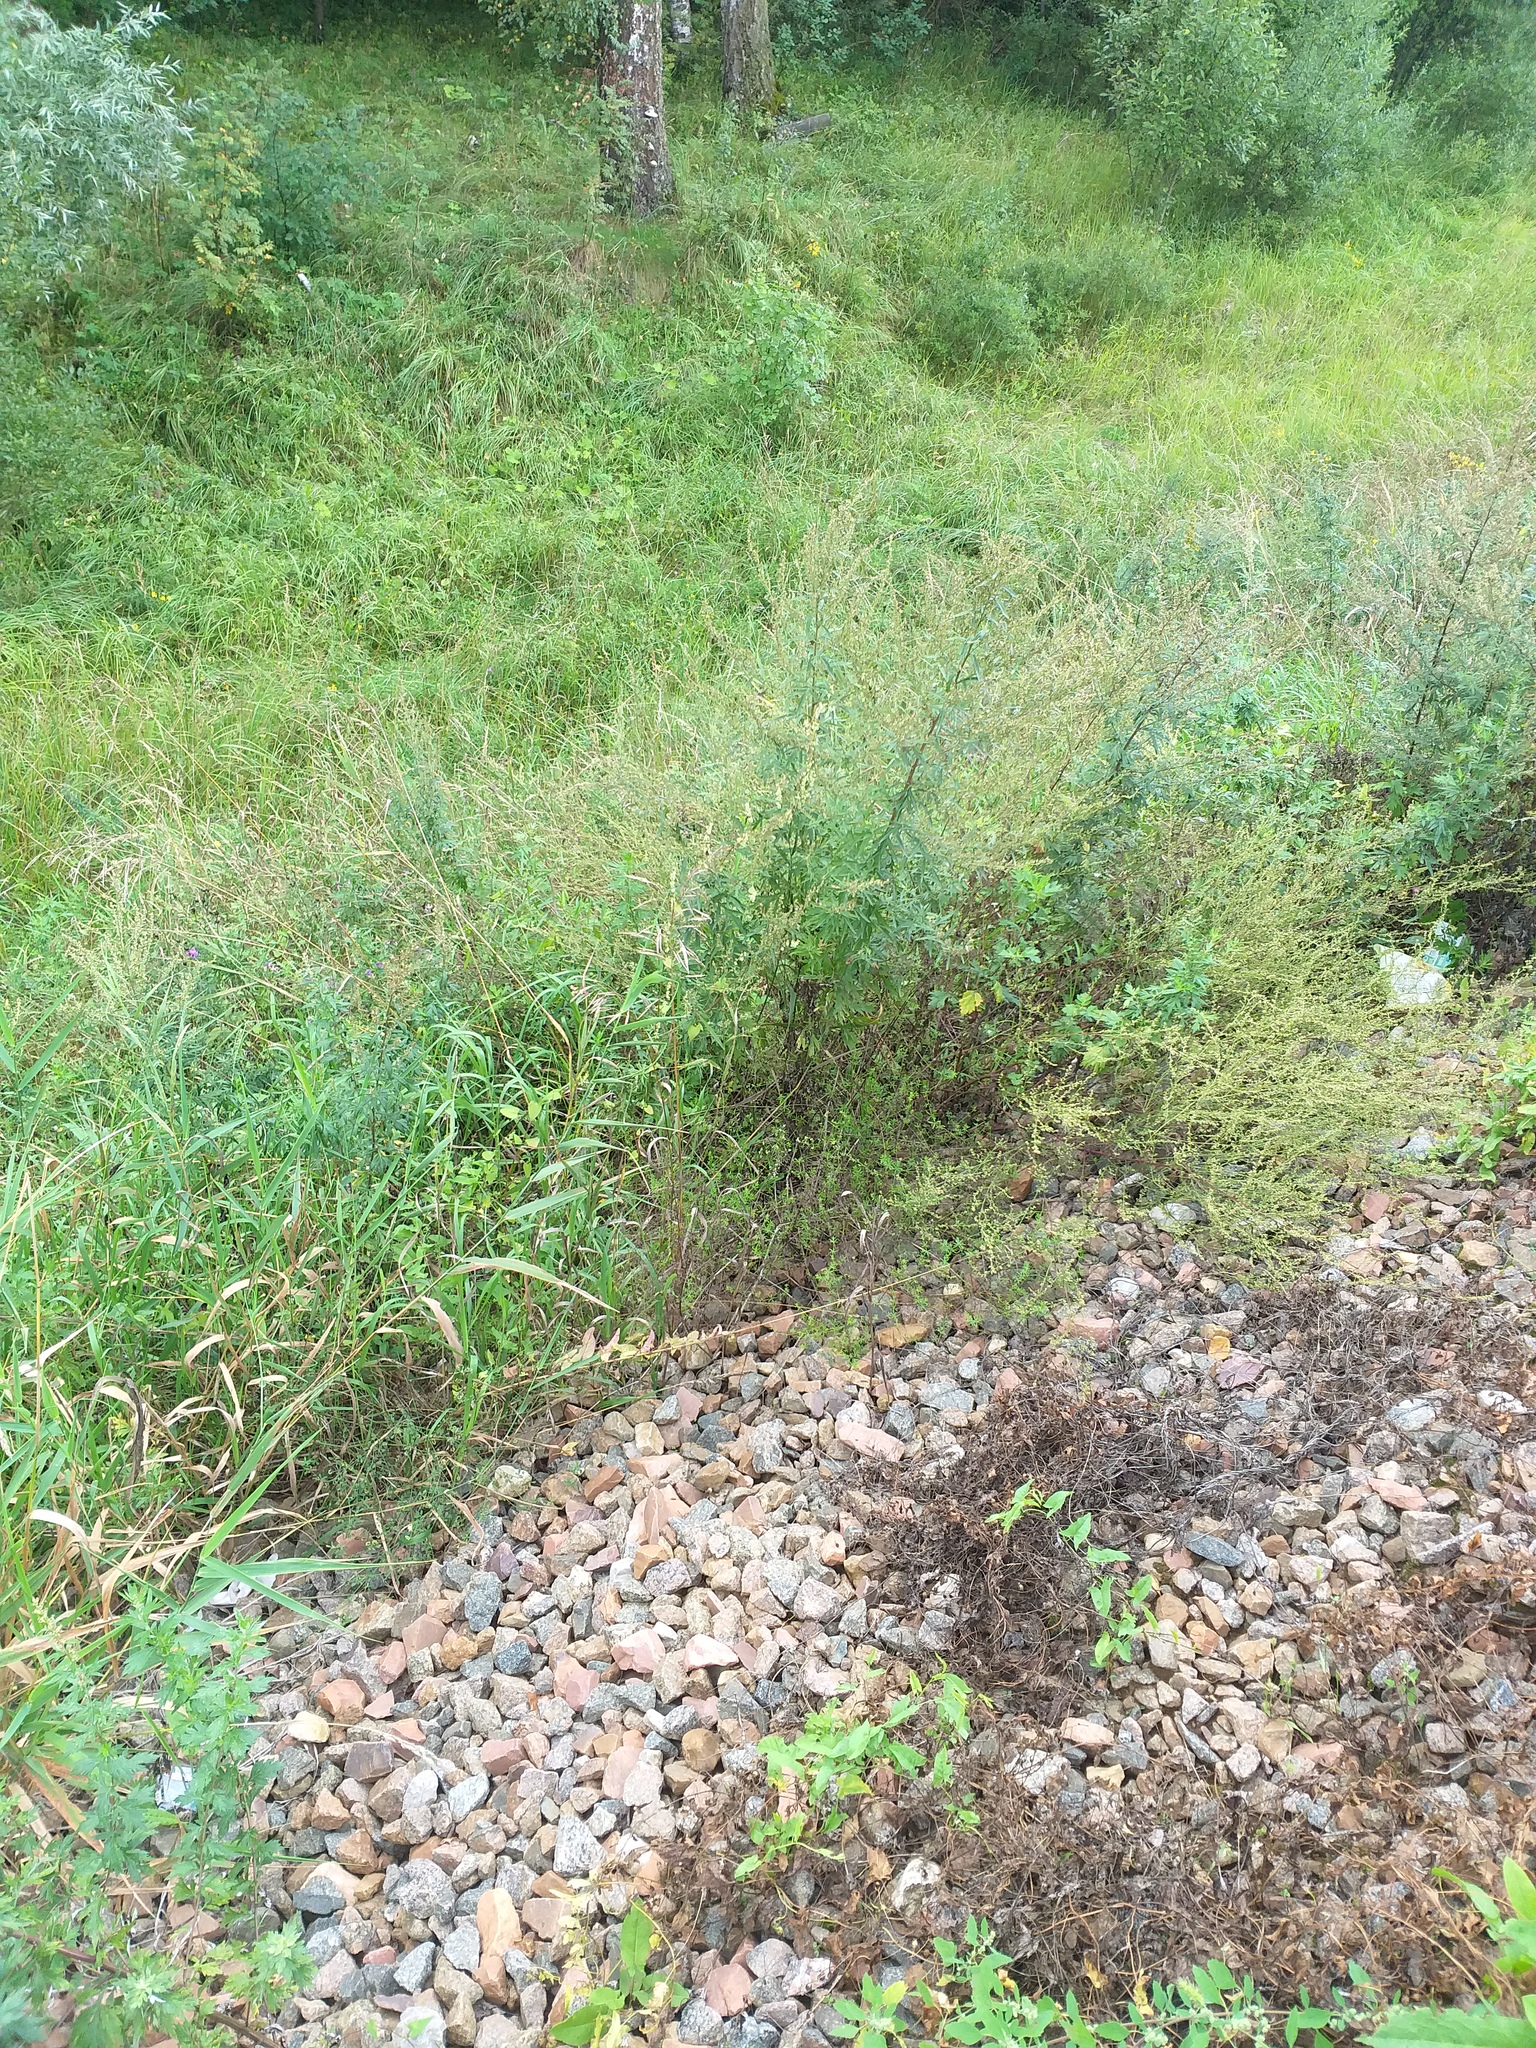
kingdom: Plantae
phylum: Tracheophyta
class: Liliopsida
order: Poales
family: Poaceae
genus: Bromus
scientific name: Bromus inermis
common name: Smooth brome
